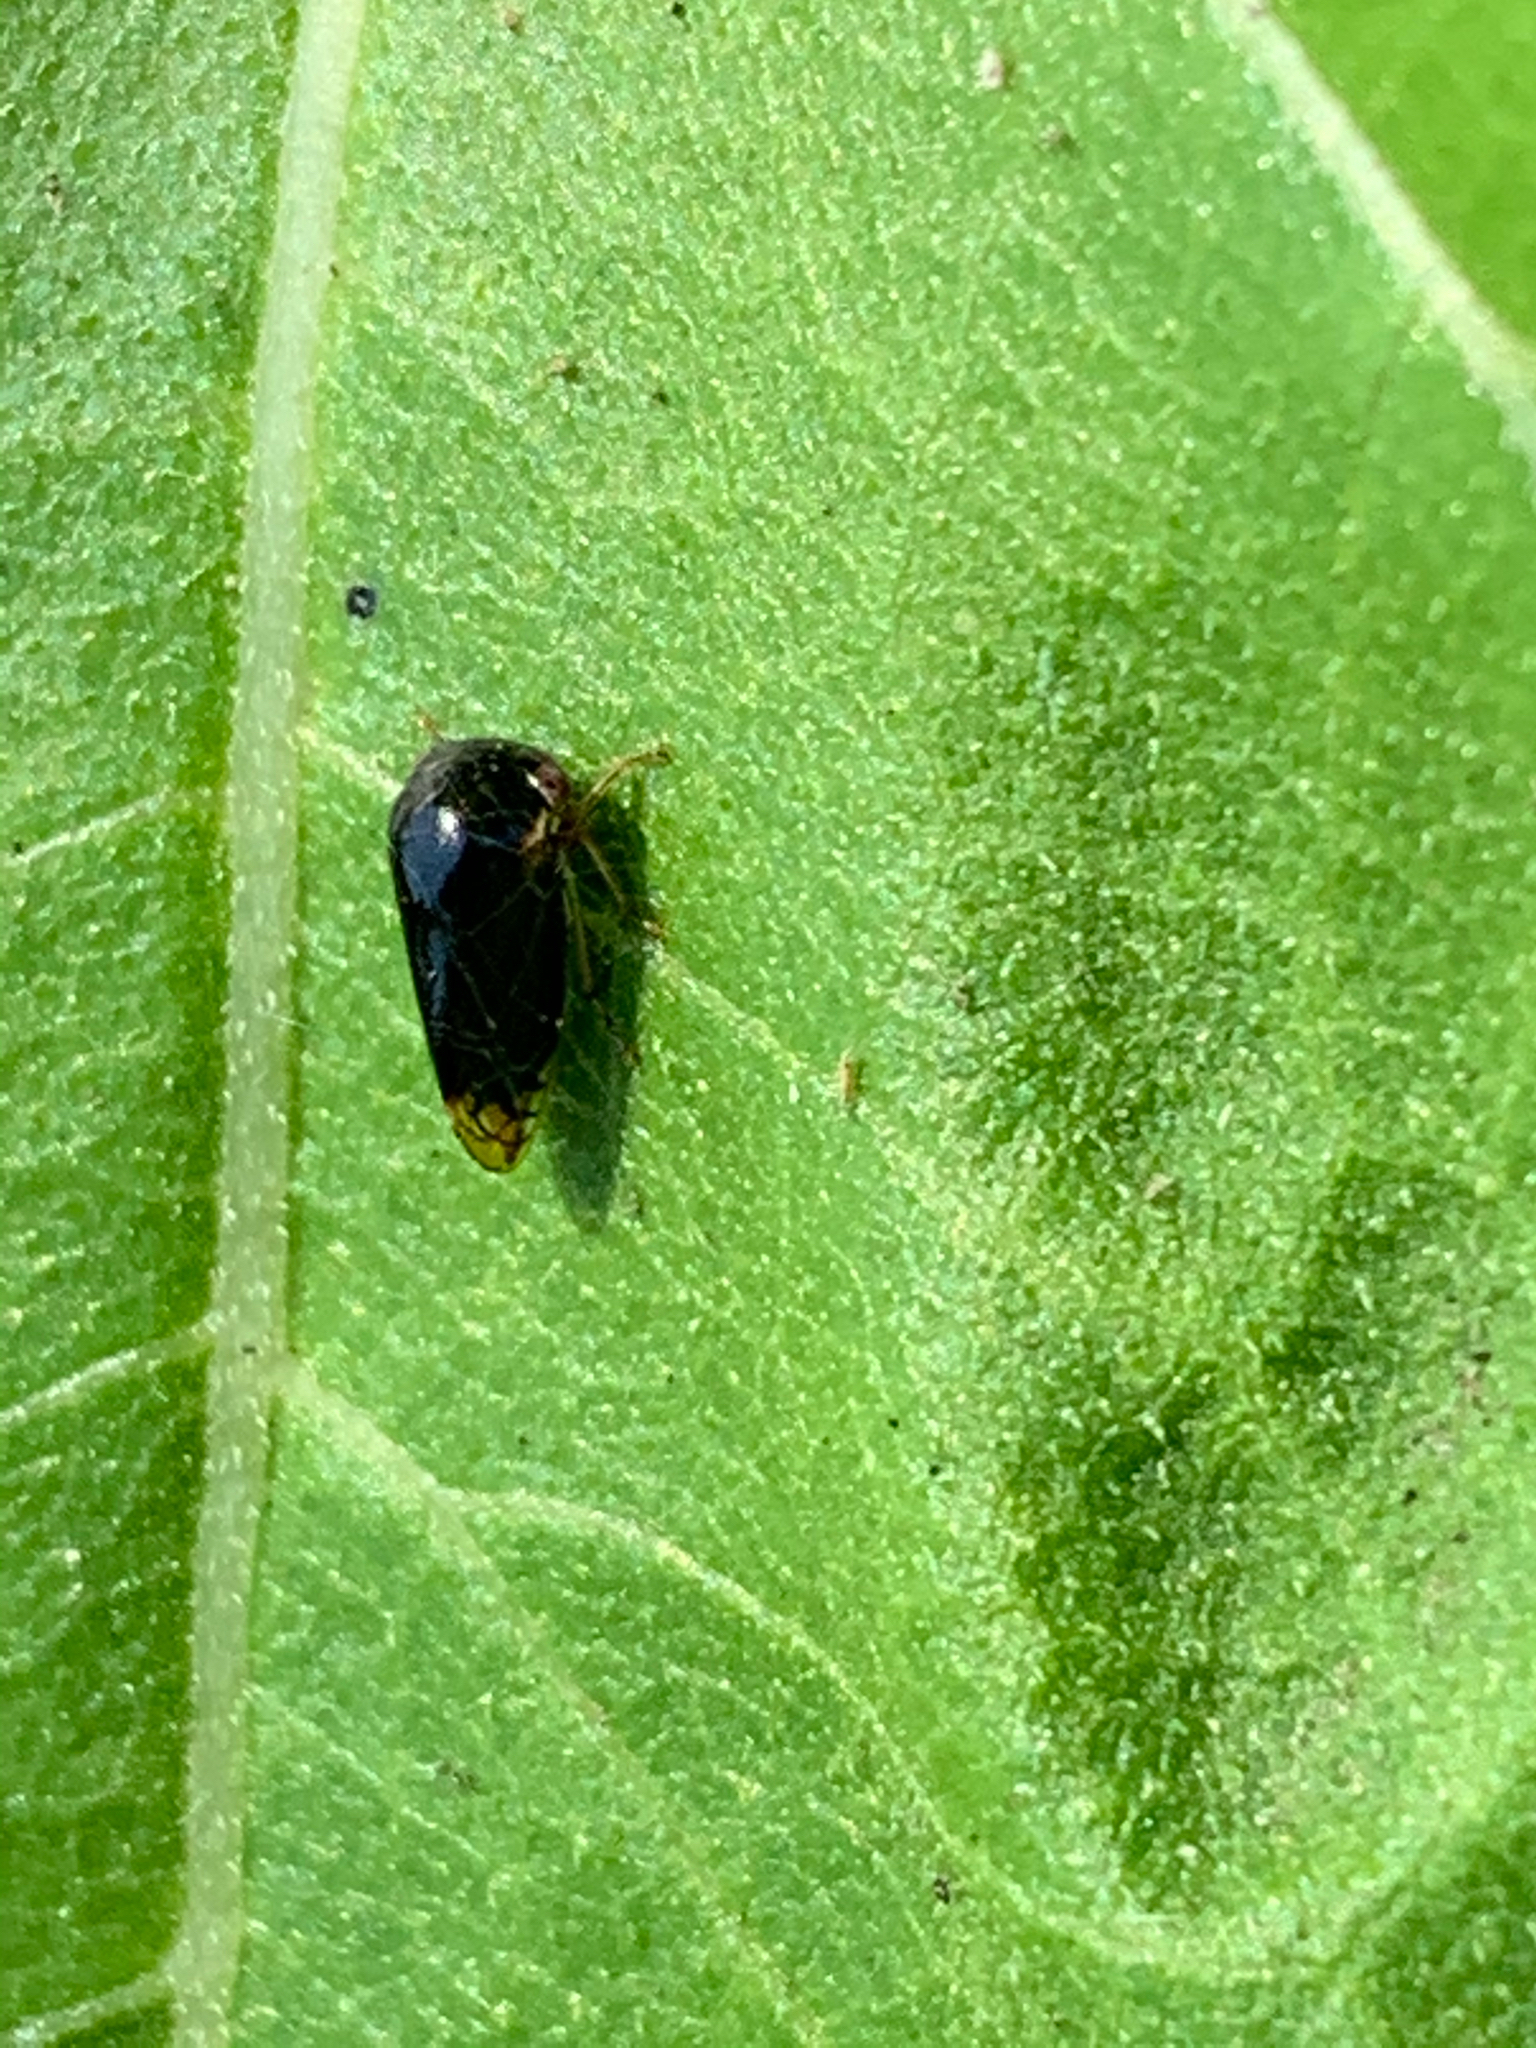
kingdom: Animalia
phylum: Arthropoda
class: Insecta
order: Hemiptera
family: Membracidae
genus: Acutalis
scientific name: Acutalis tartarea
